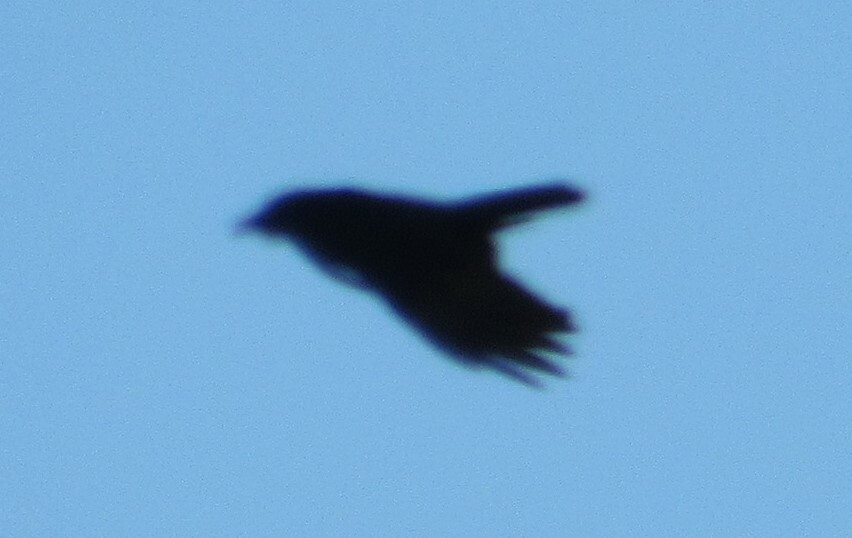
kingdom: Animalia
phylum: Chordata
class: Aves
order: Passeriformes
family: Corvidae
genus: Corvus
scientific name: Corvus brachyrhynchos
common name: American crow
